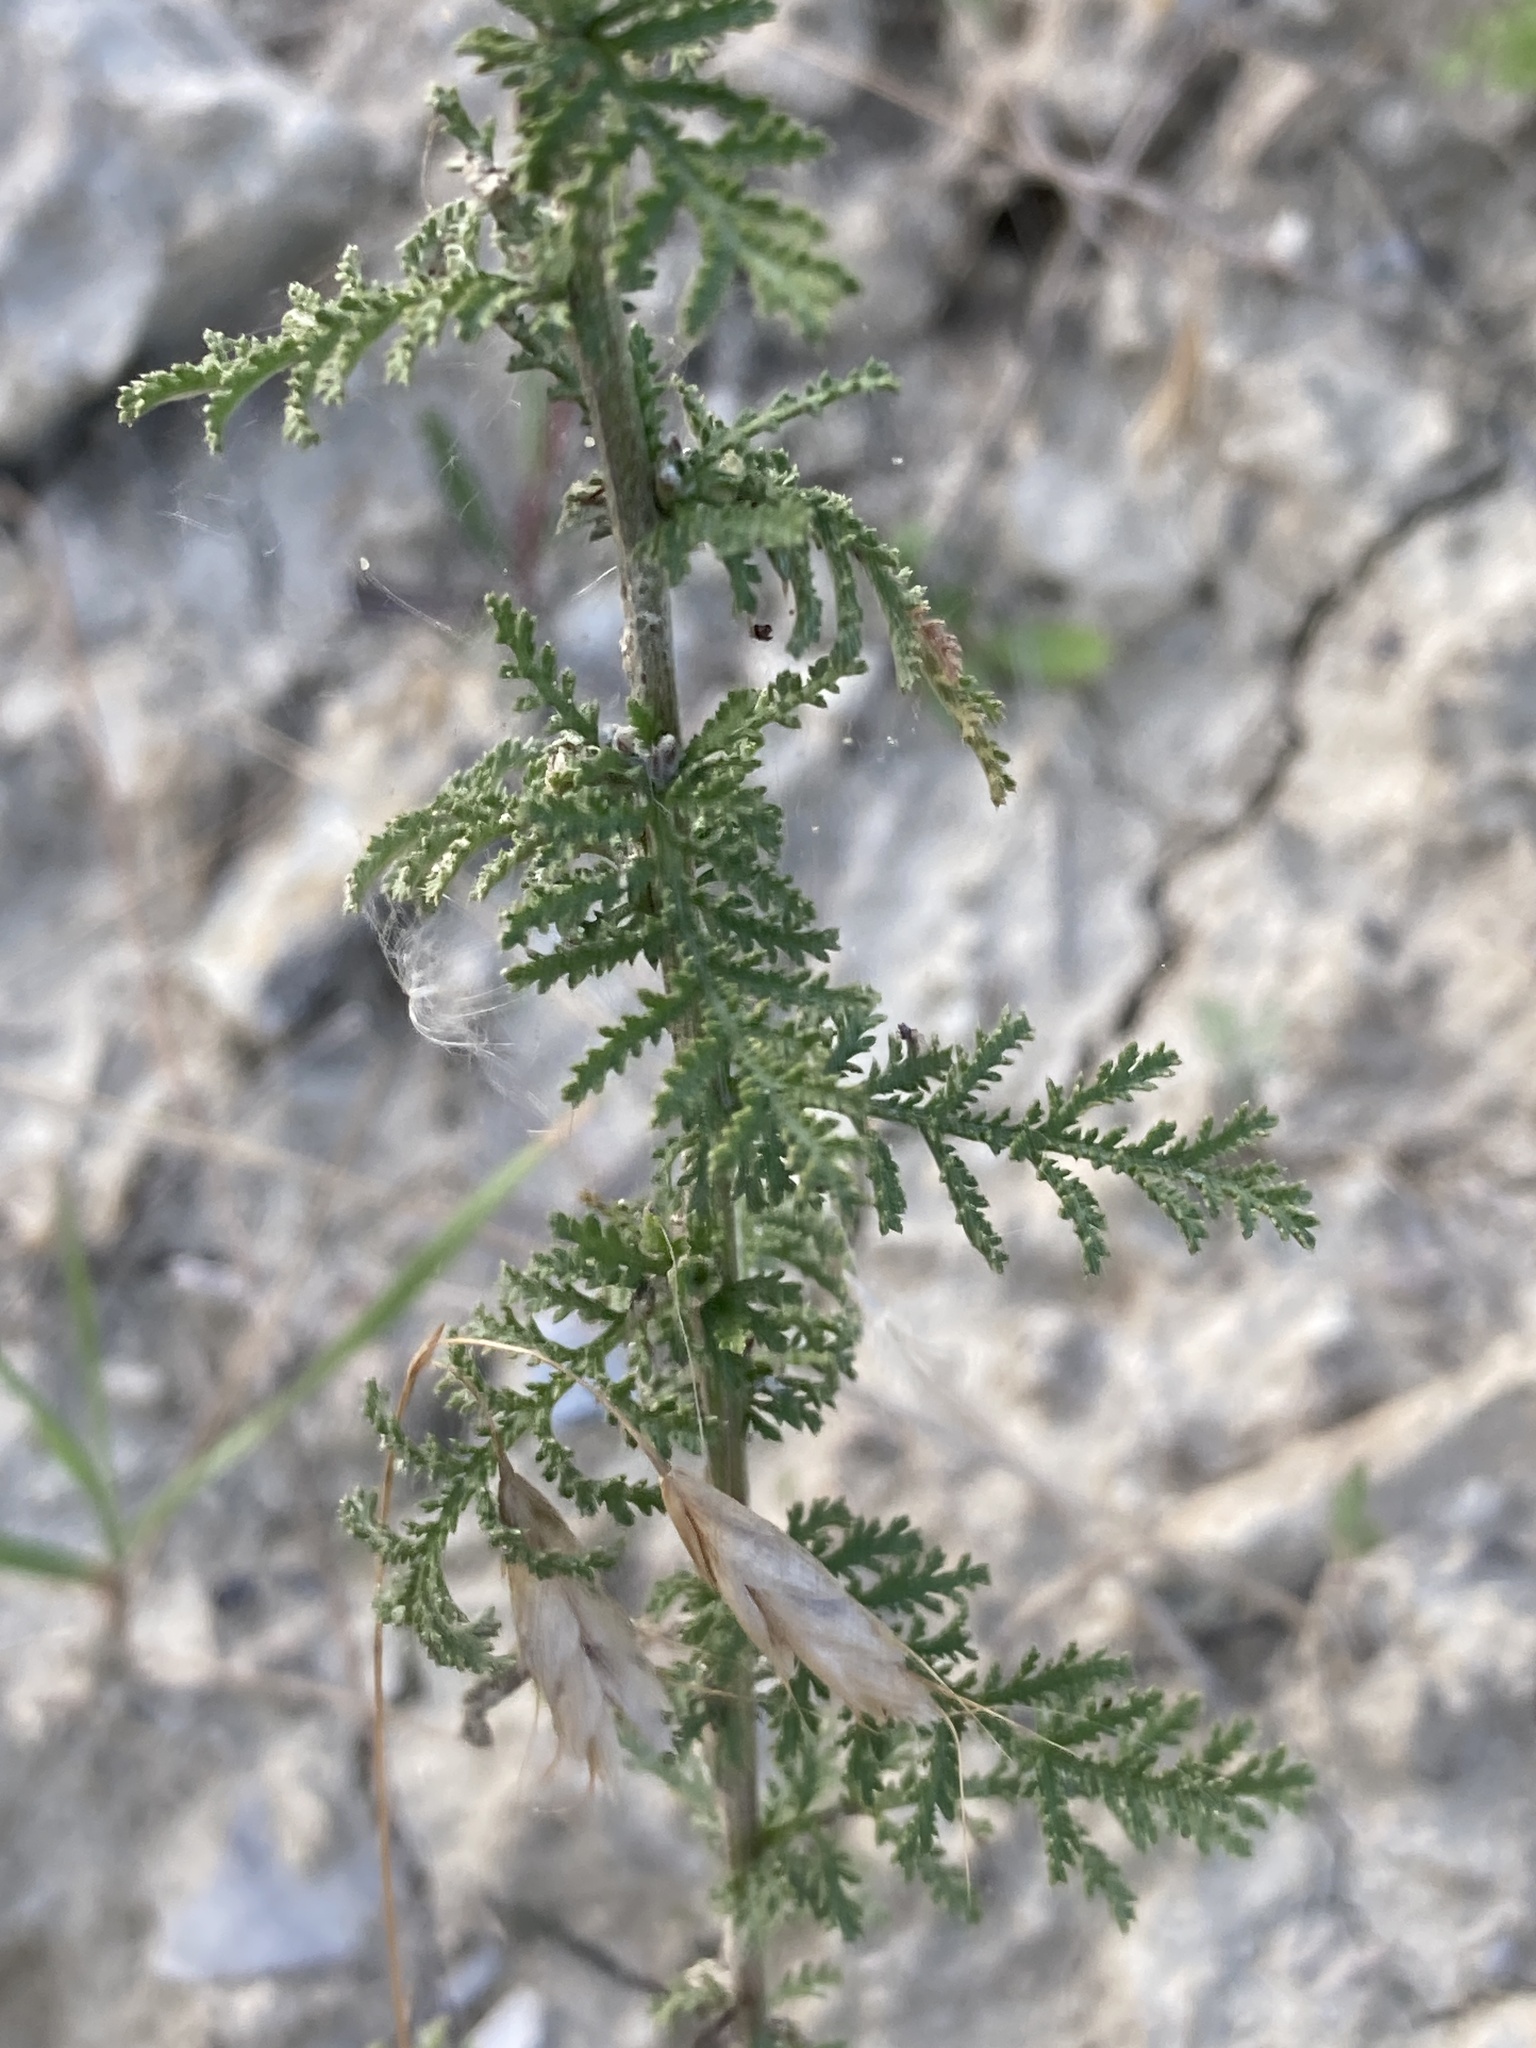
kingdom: Plantae
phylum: Tracheophyta
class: Magnoliopsida
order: Asterales
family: Asteraceae
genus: Achillea
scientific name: Achillea nobilis
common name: Noble yarrow
